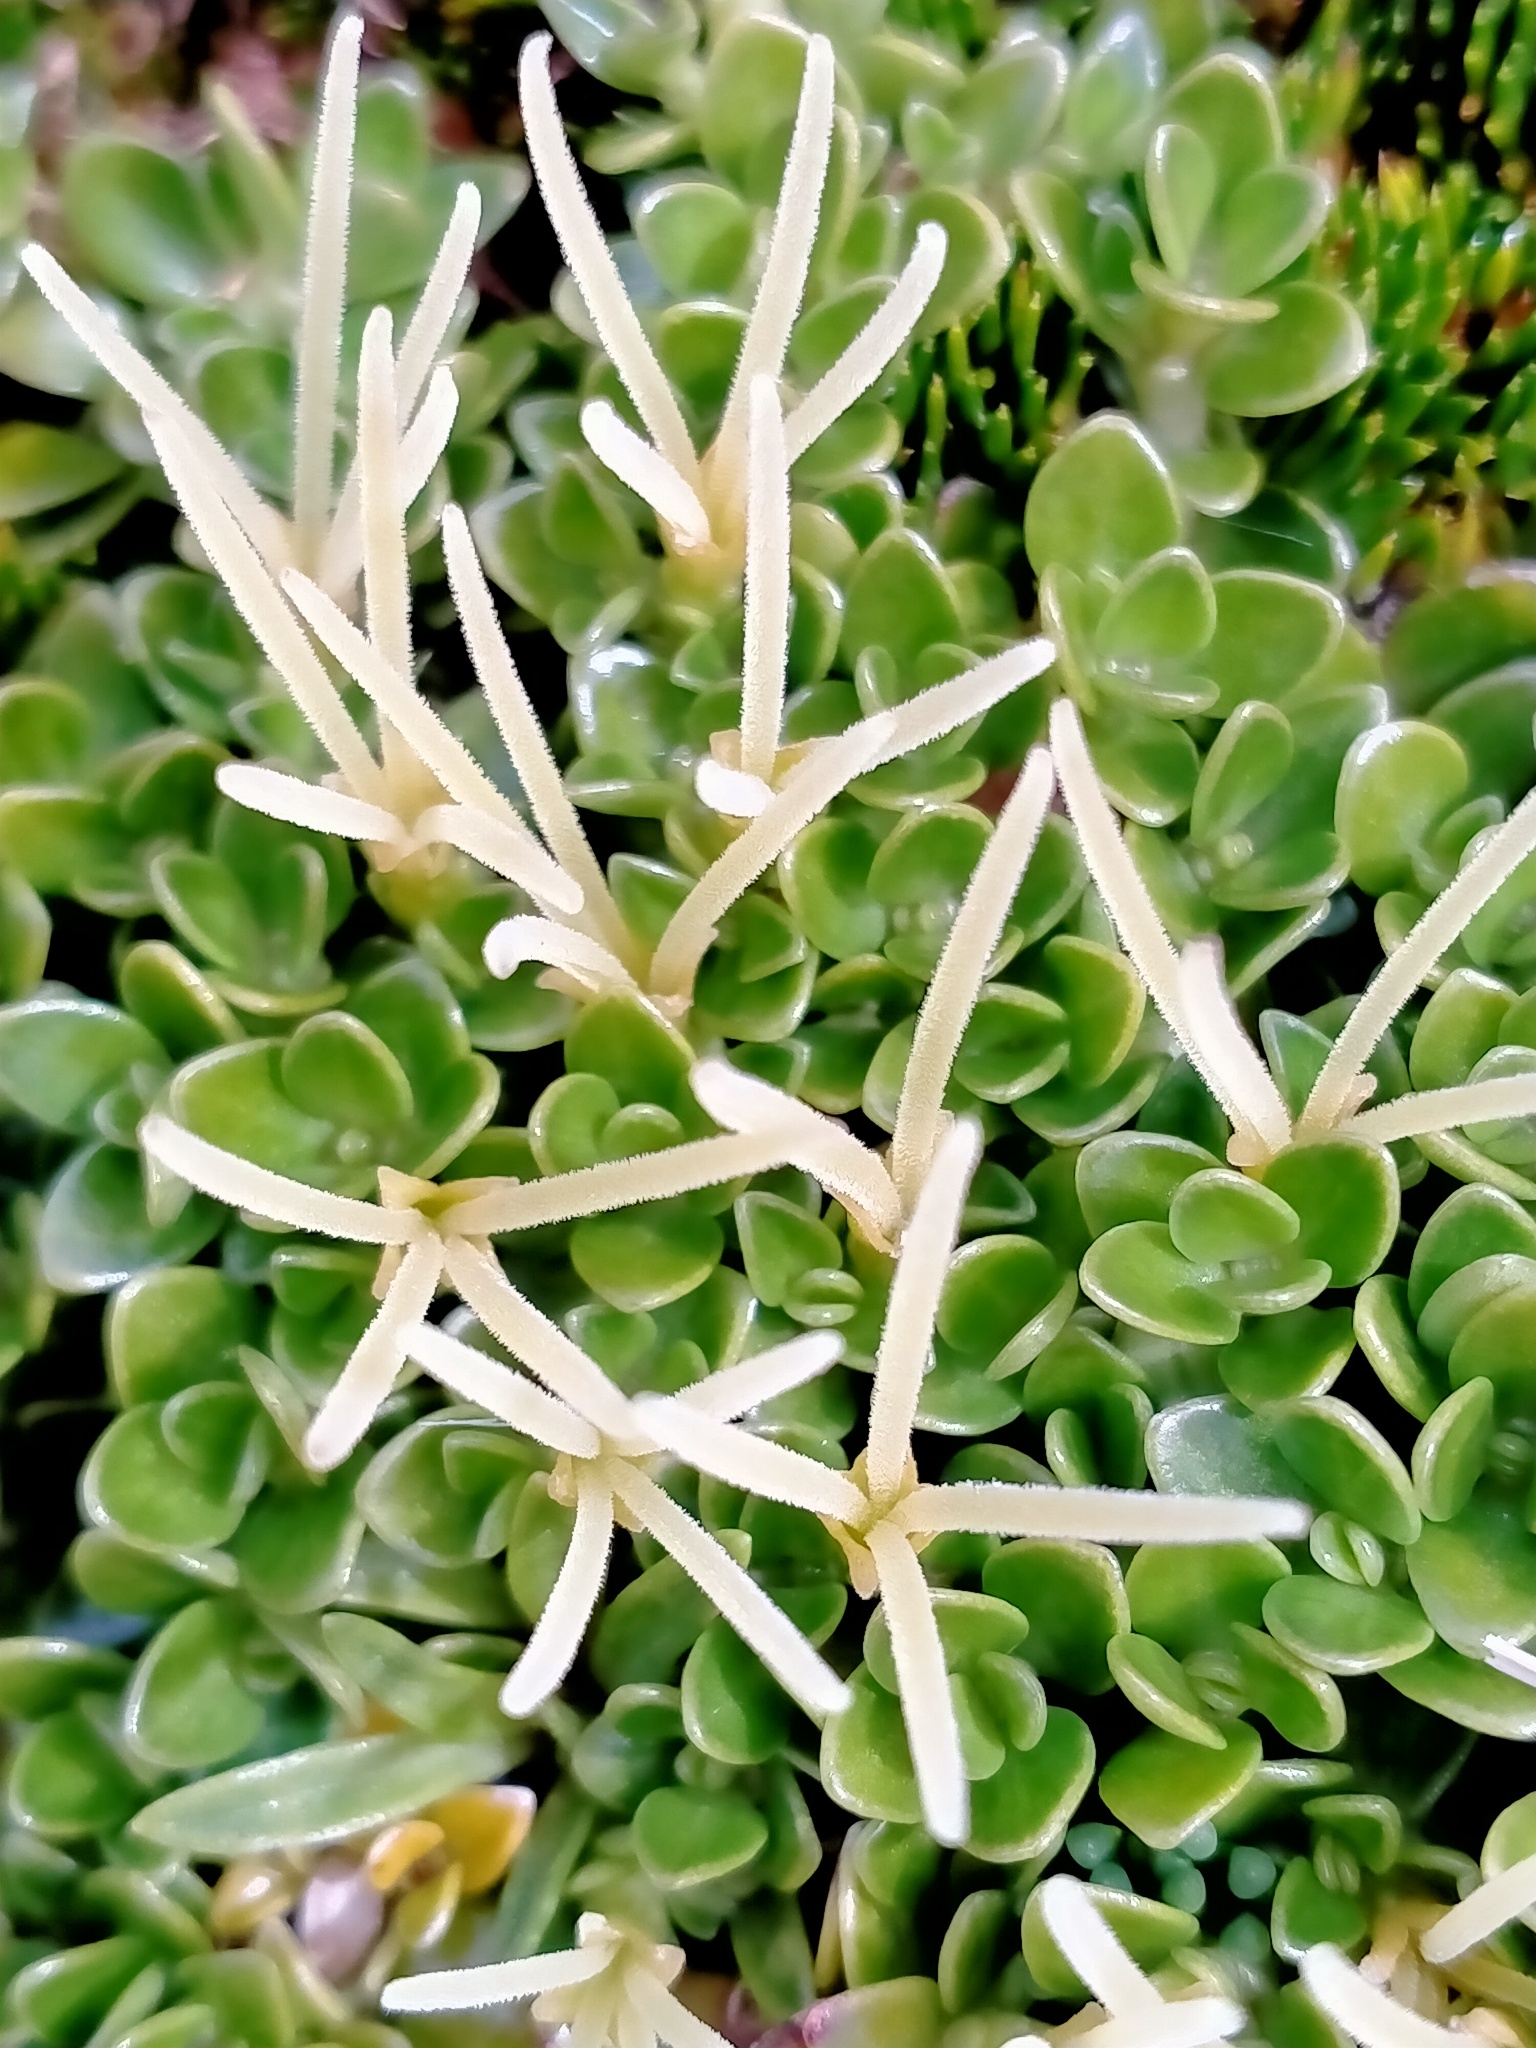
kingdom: Plantae
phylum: Tracheophyta
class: Magnoliopsida
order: Gentianales
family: Rubiaceae
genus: Coprosma
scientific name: Coprosma perpusilla
